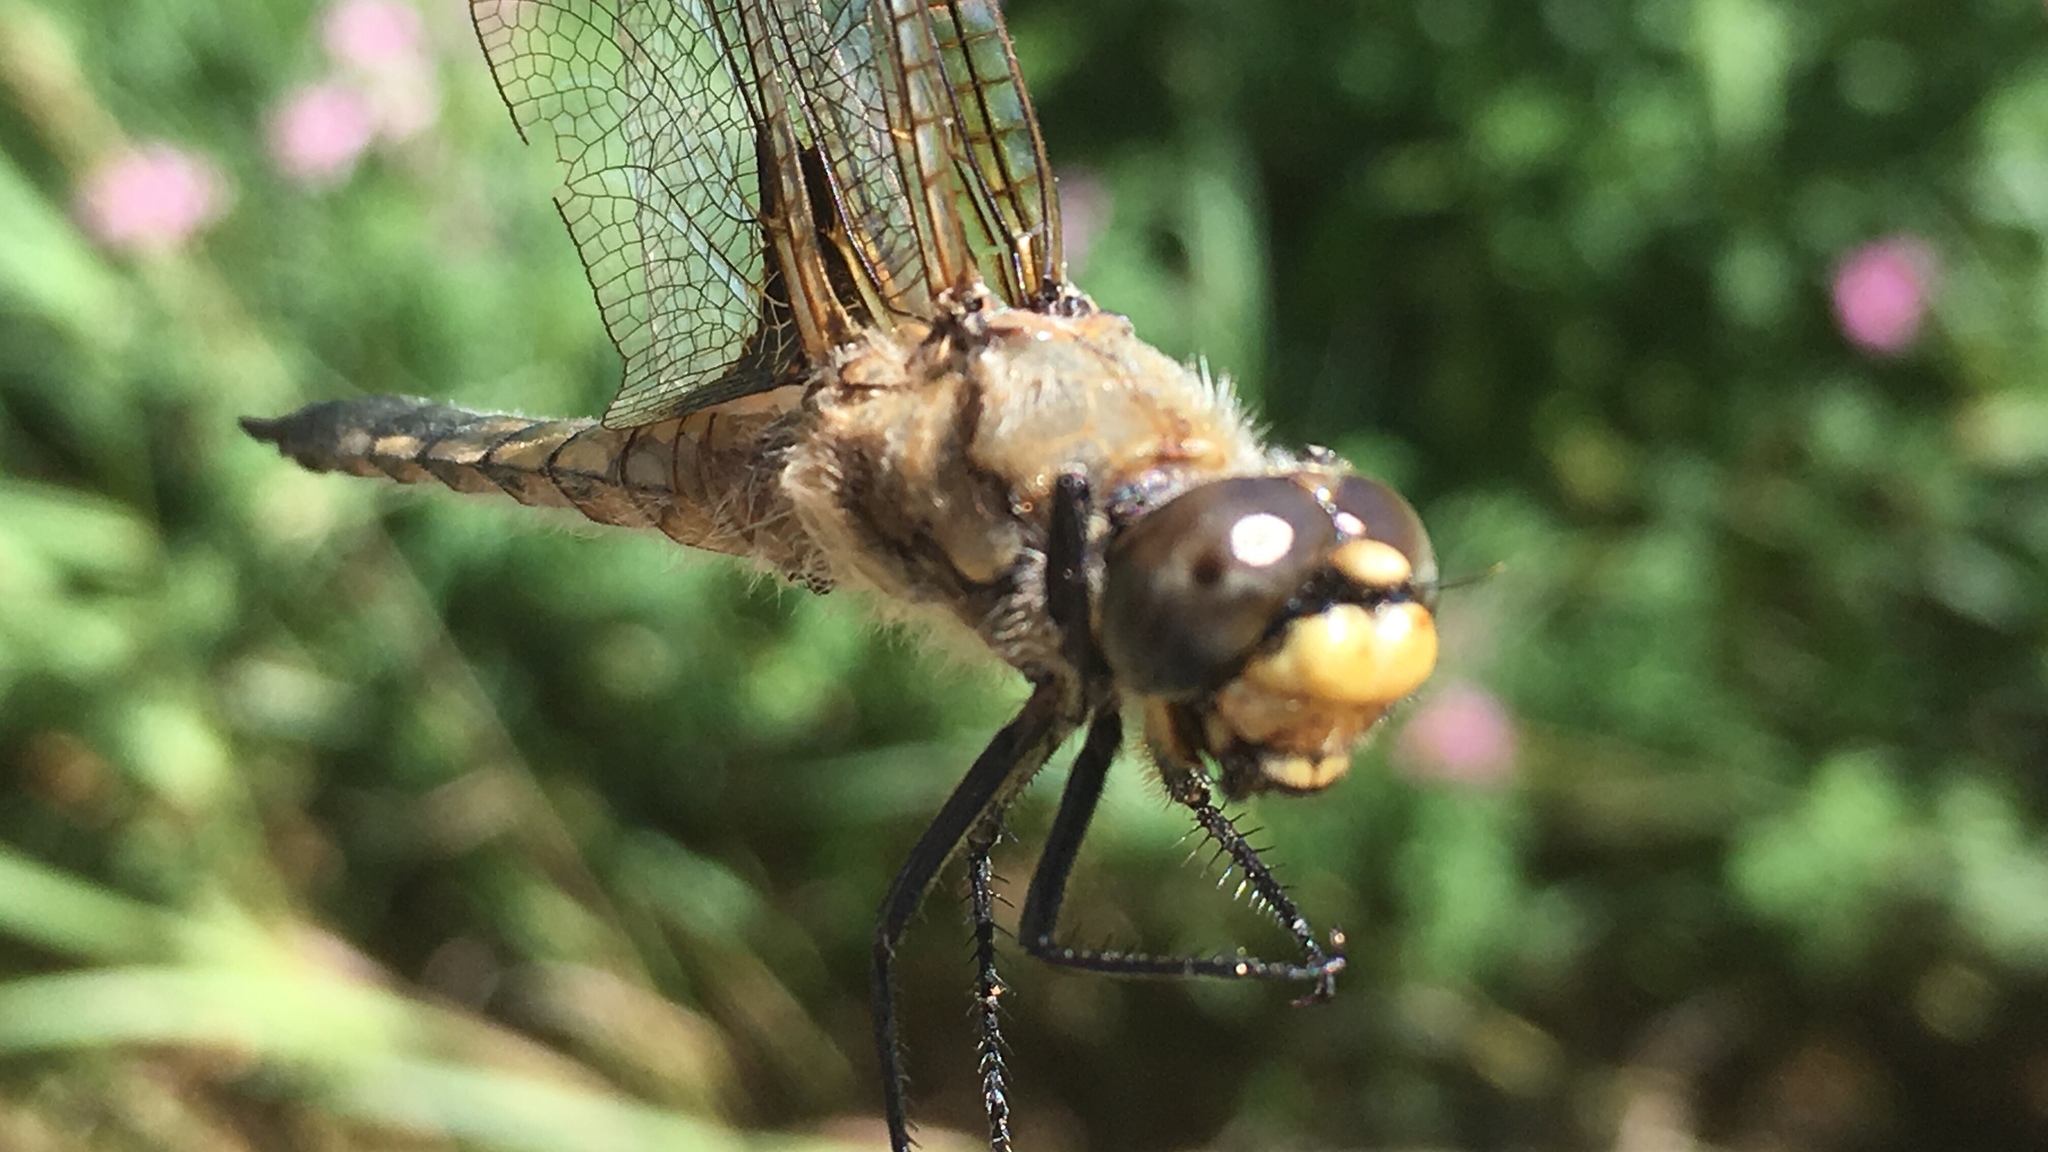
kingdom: Animalia
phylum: Arthropoda
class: Insecta
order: Odonata
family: Libellulidae
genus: Libellula
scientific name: Libellula quadrimaculata
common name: Four-spotted chaser
